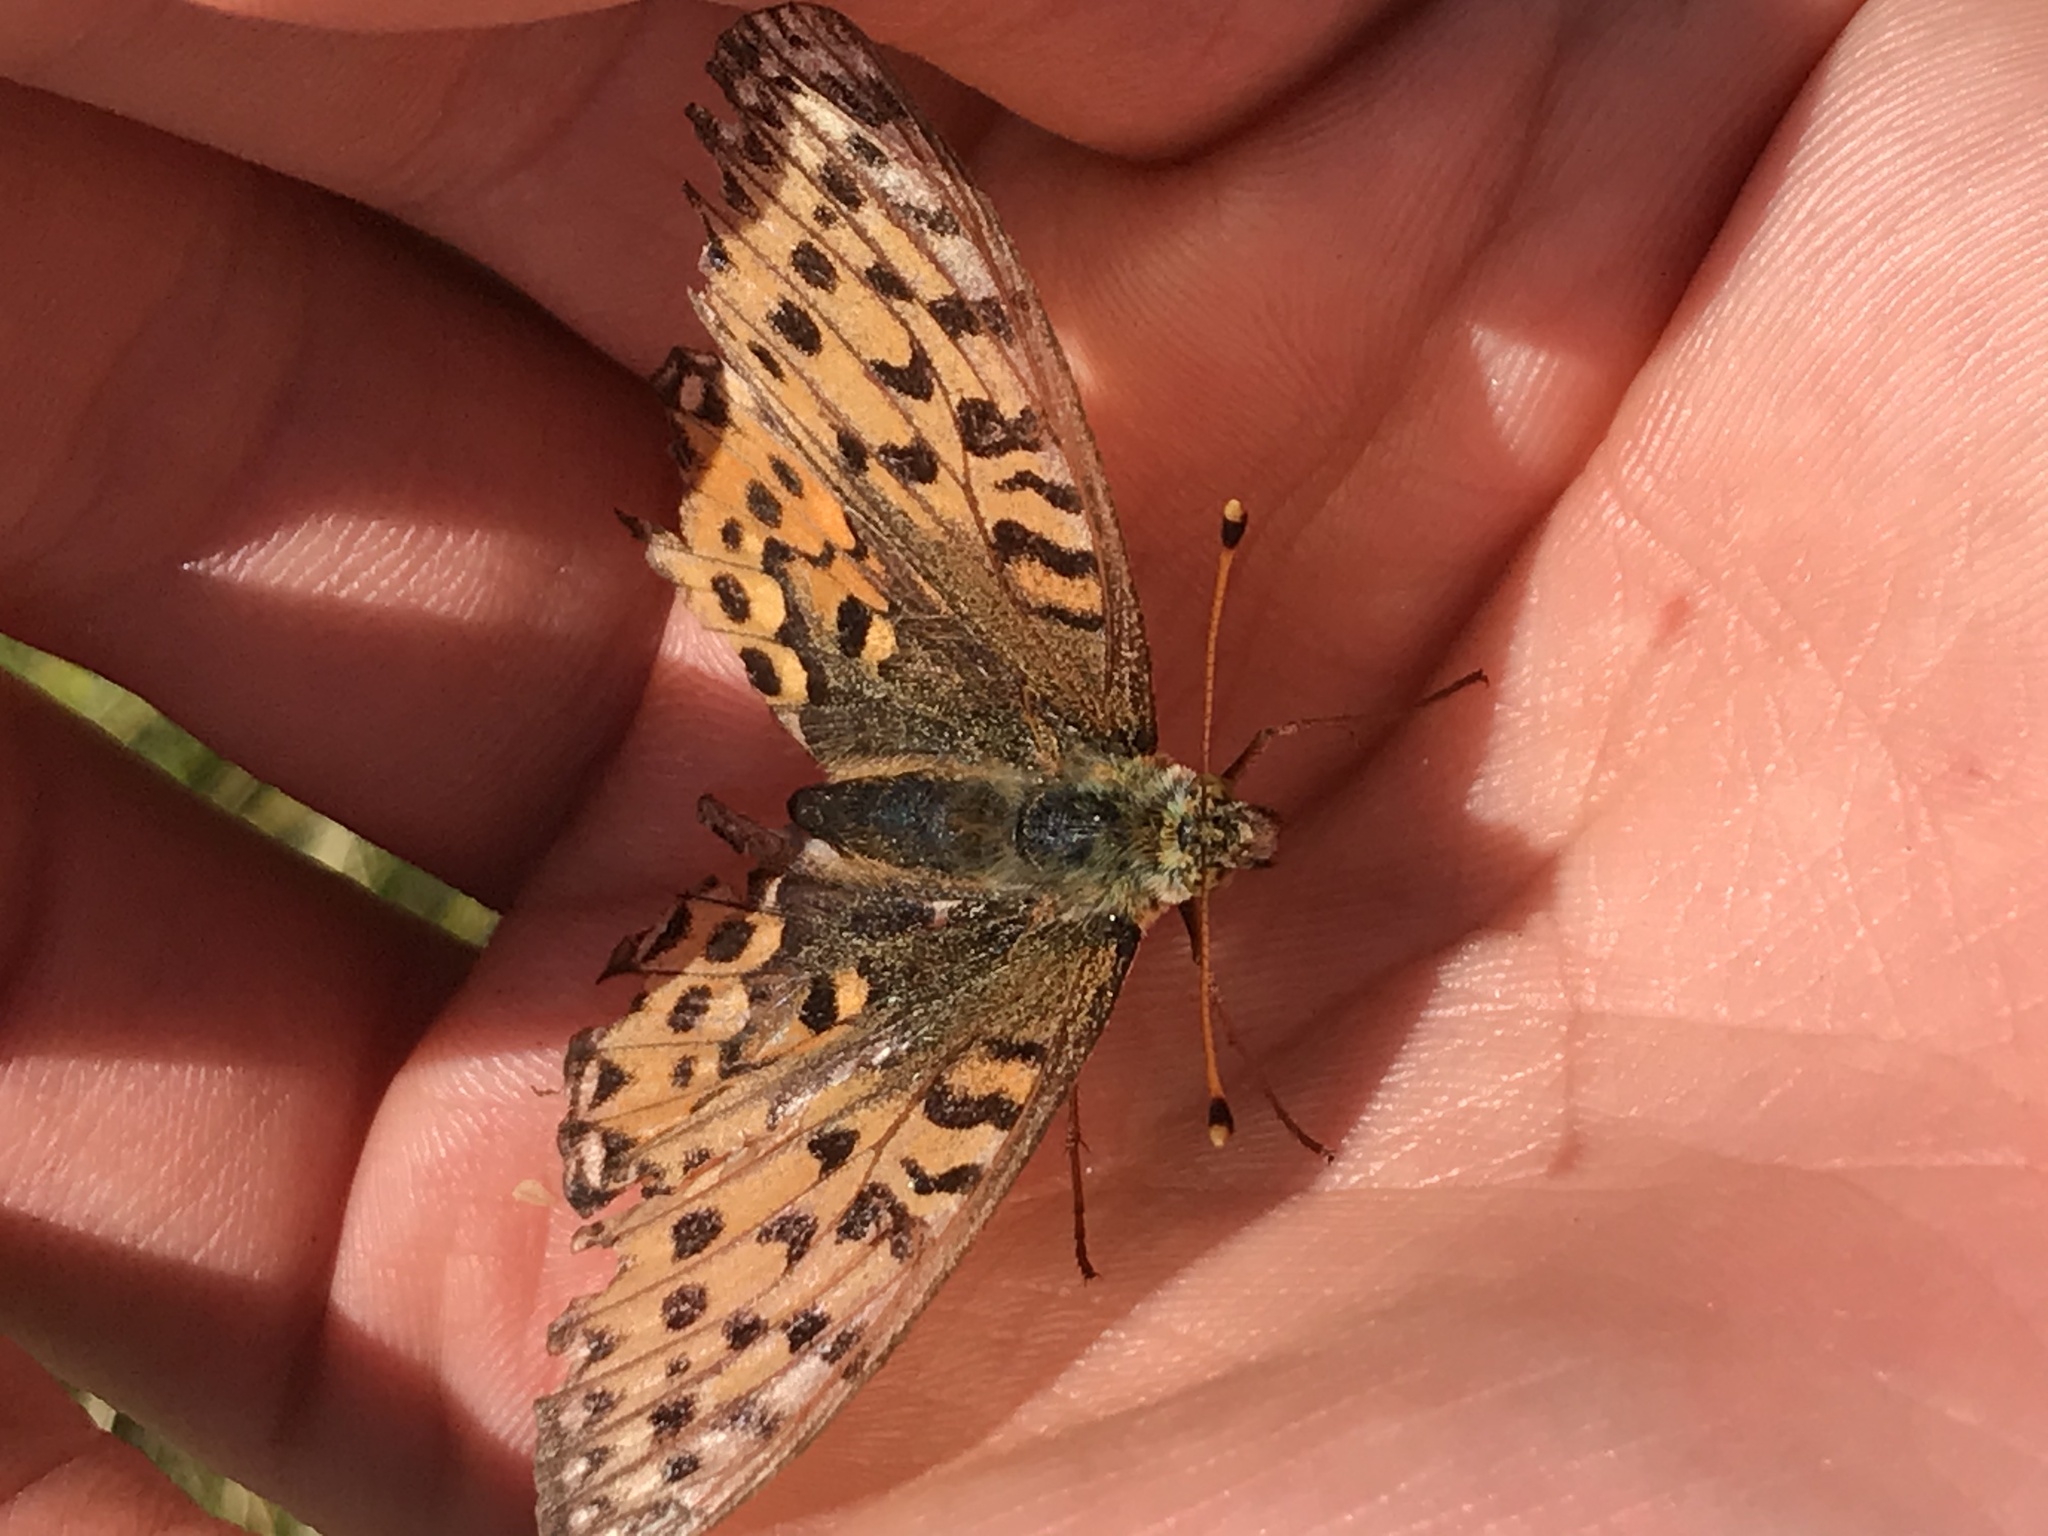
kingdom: Animalia
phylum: Arthropoda
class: Insecta
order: Lepidoptera
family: Nymphalidae
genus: Speyeria
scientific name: Speyeria aglaja
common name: Dark green fritillary
